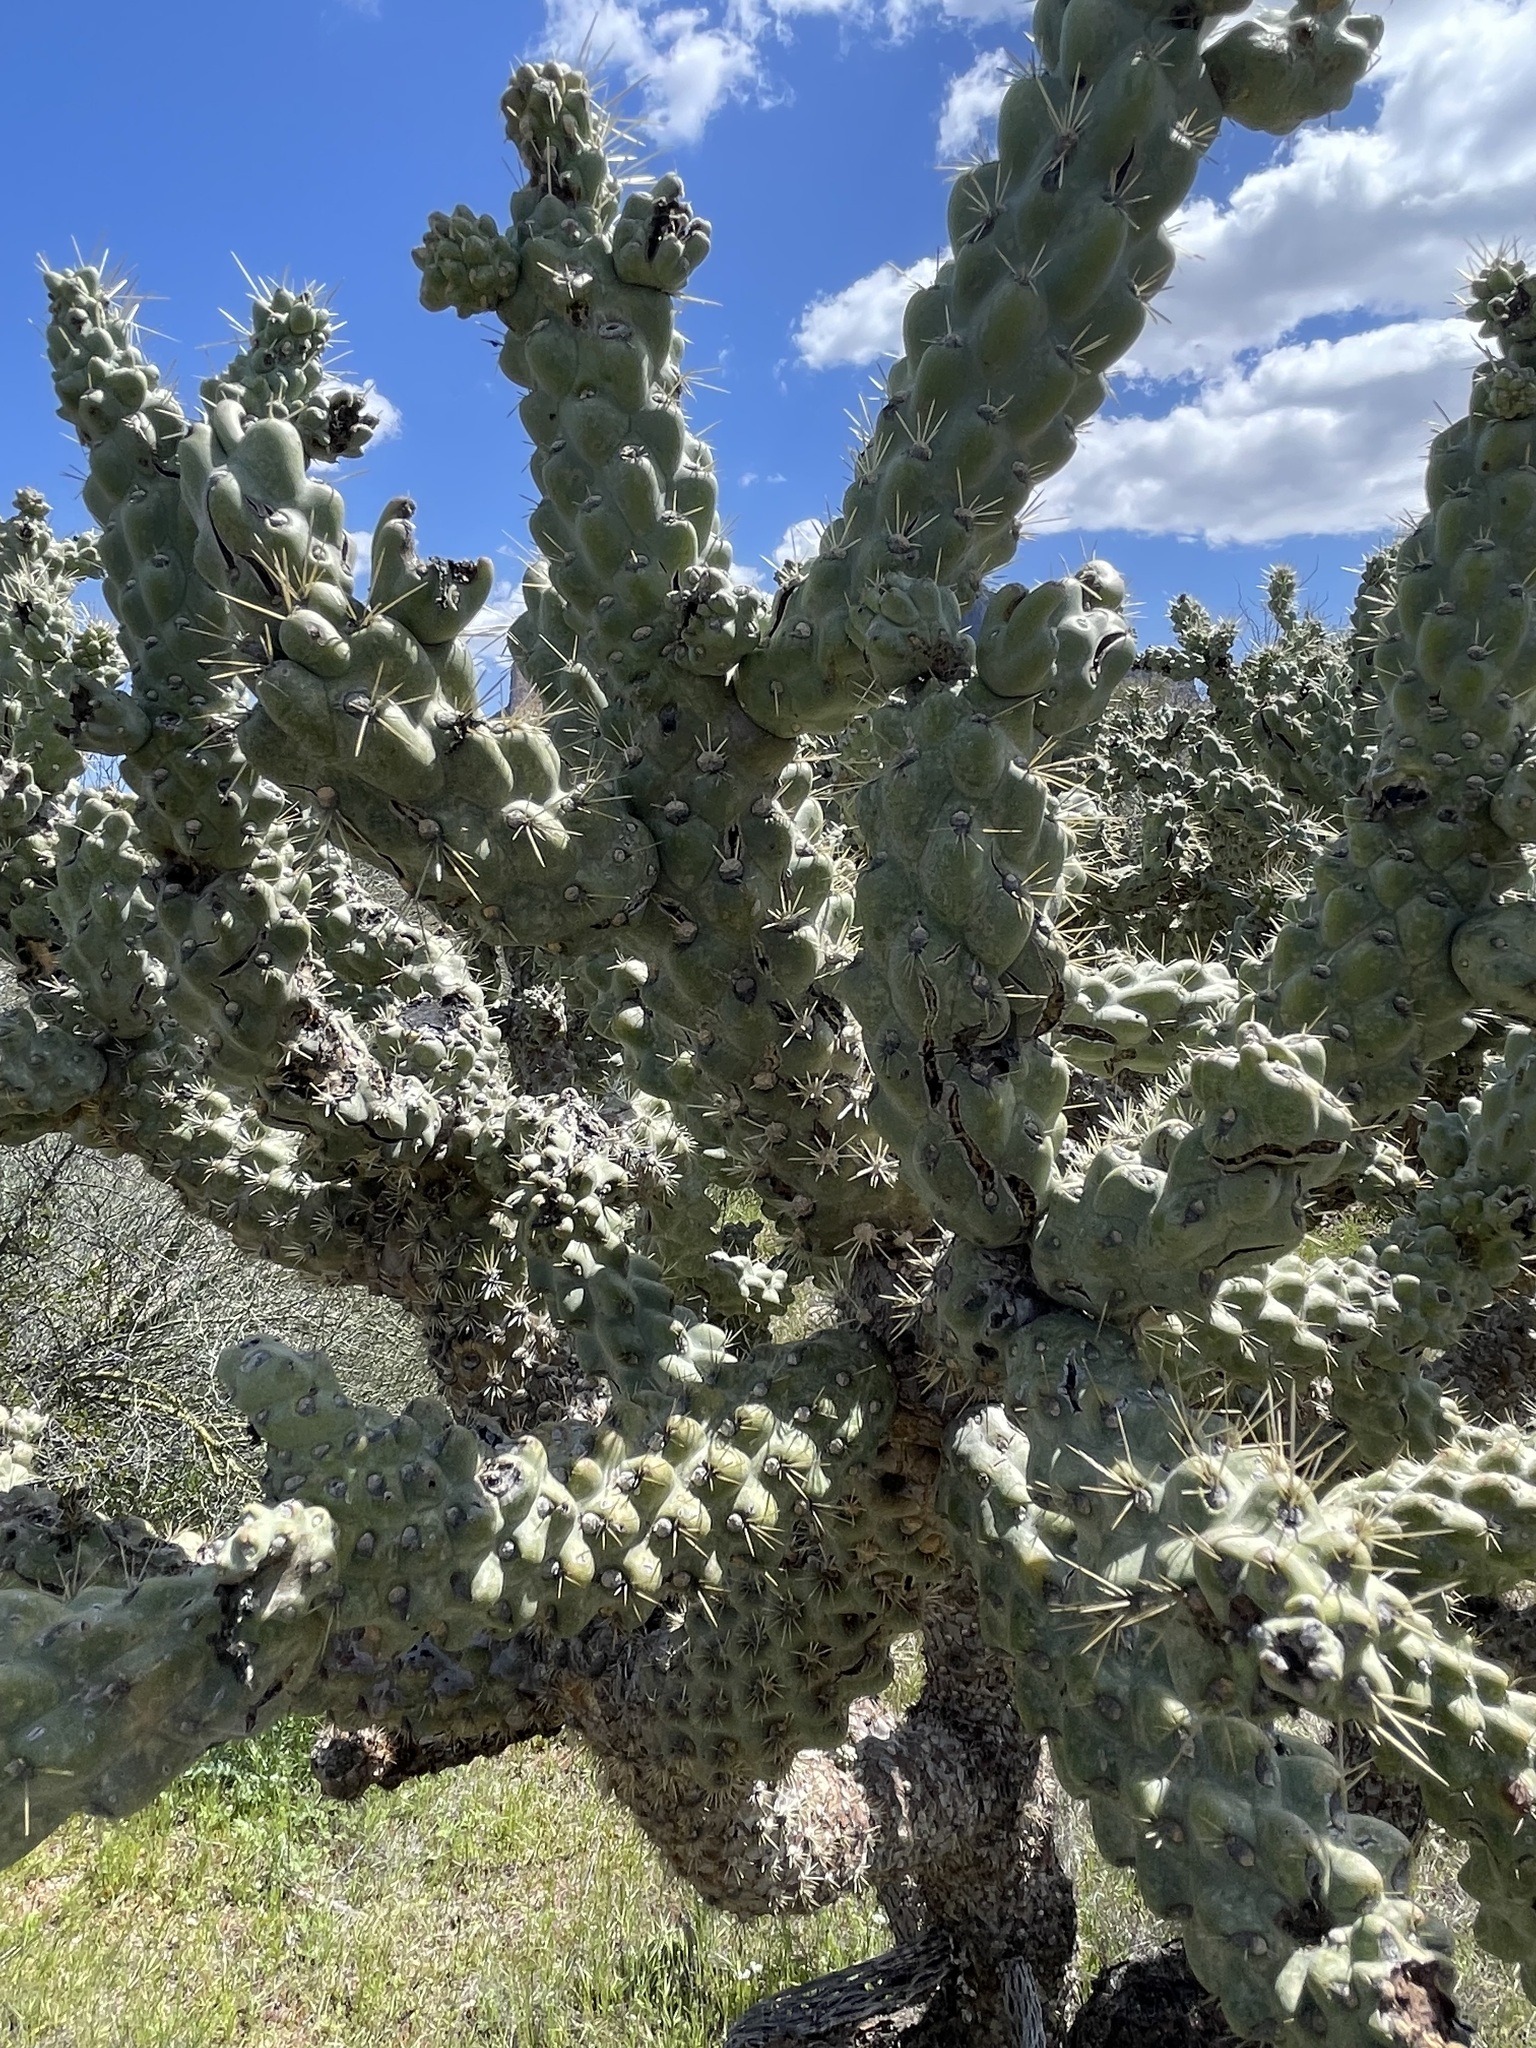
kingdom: Plantae
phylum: Tracheophyta
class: Magnoliopsida
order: Caryophyllales
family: Cactaceae
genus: Cylindropuntia
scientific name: Cylindropuntia fulgida
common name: Jumping cholla
